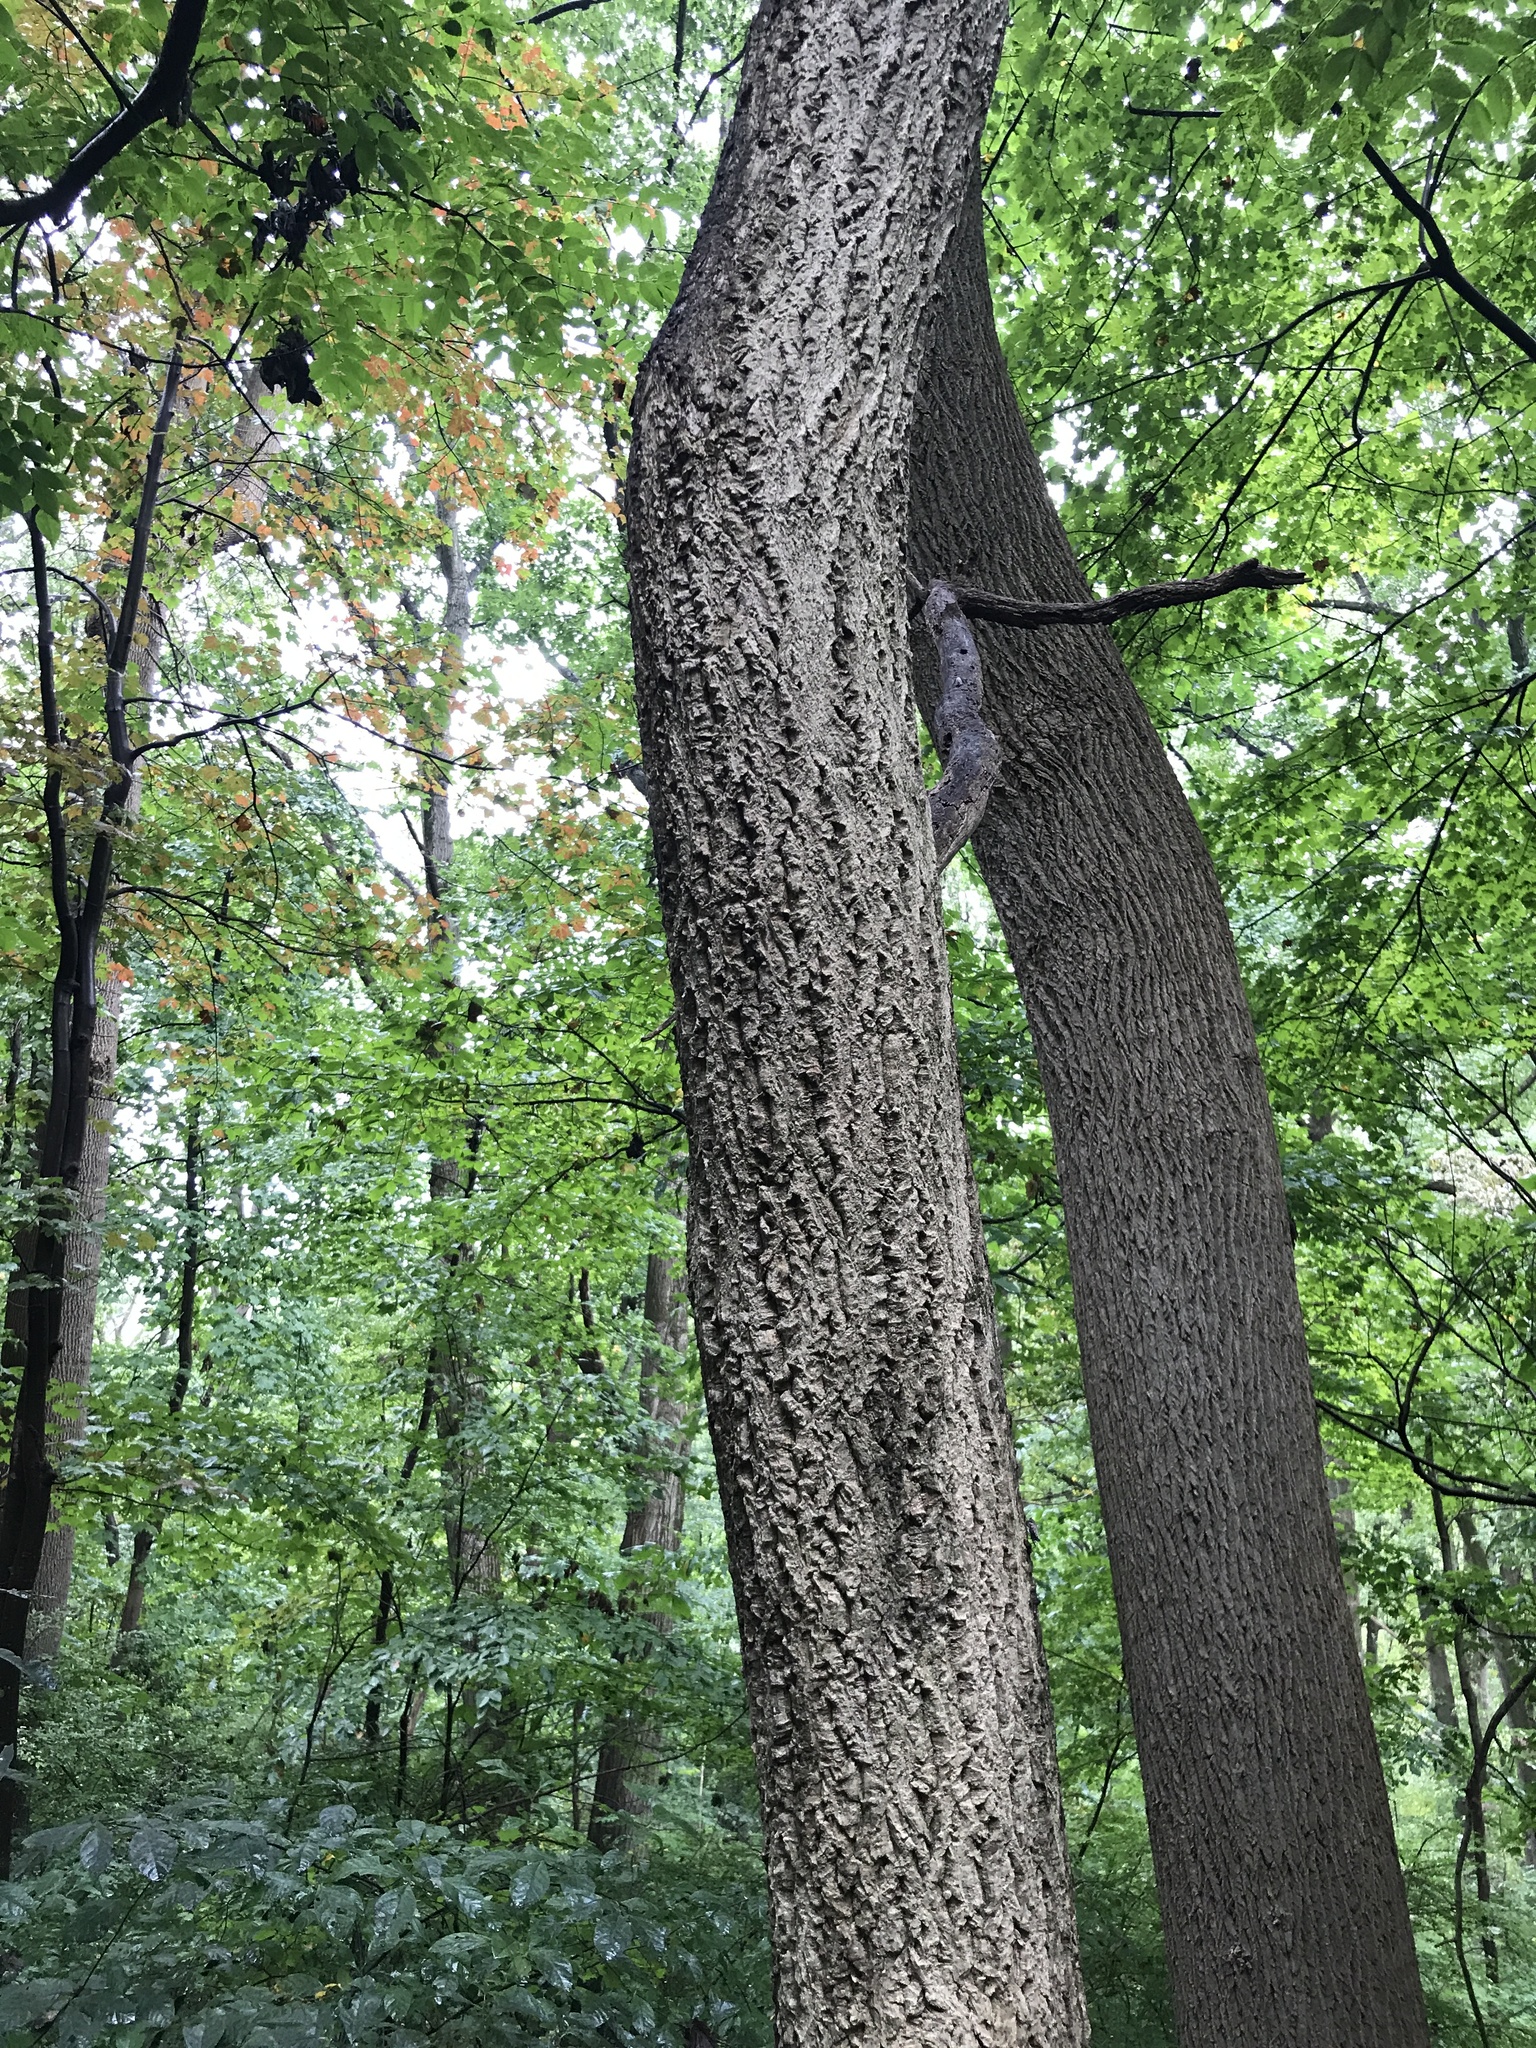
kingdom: Plantae
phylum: Tracheophyta
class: Magnoliopsida
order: Sapindales
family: Rutaceae
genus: Phellodendron
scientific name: Phellodendron amurense
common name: Amur corktree
